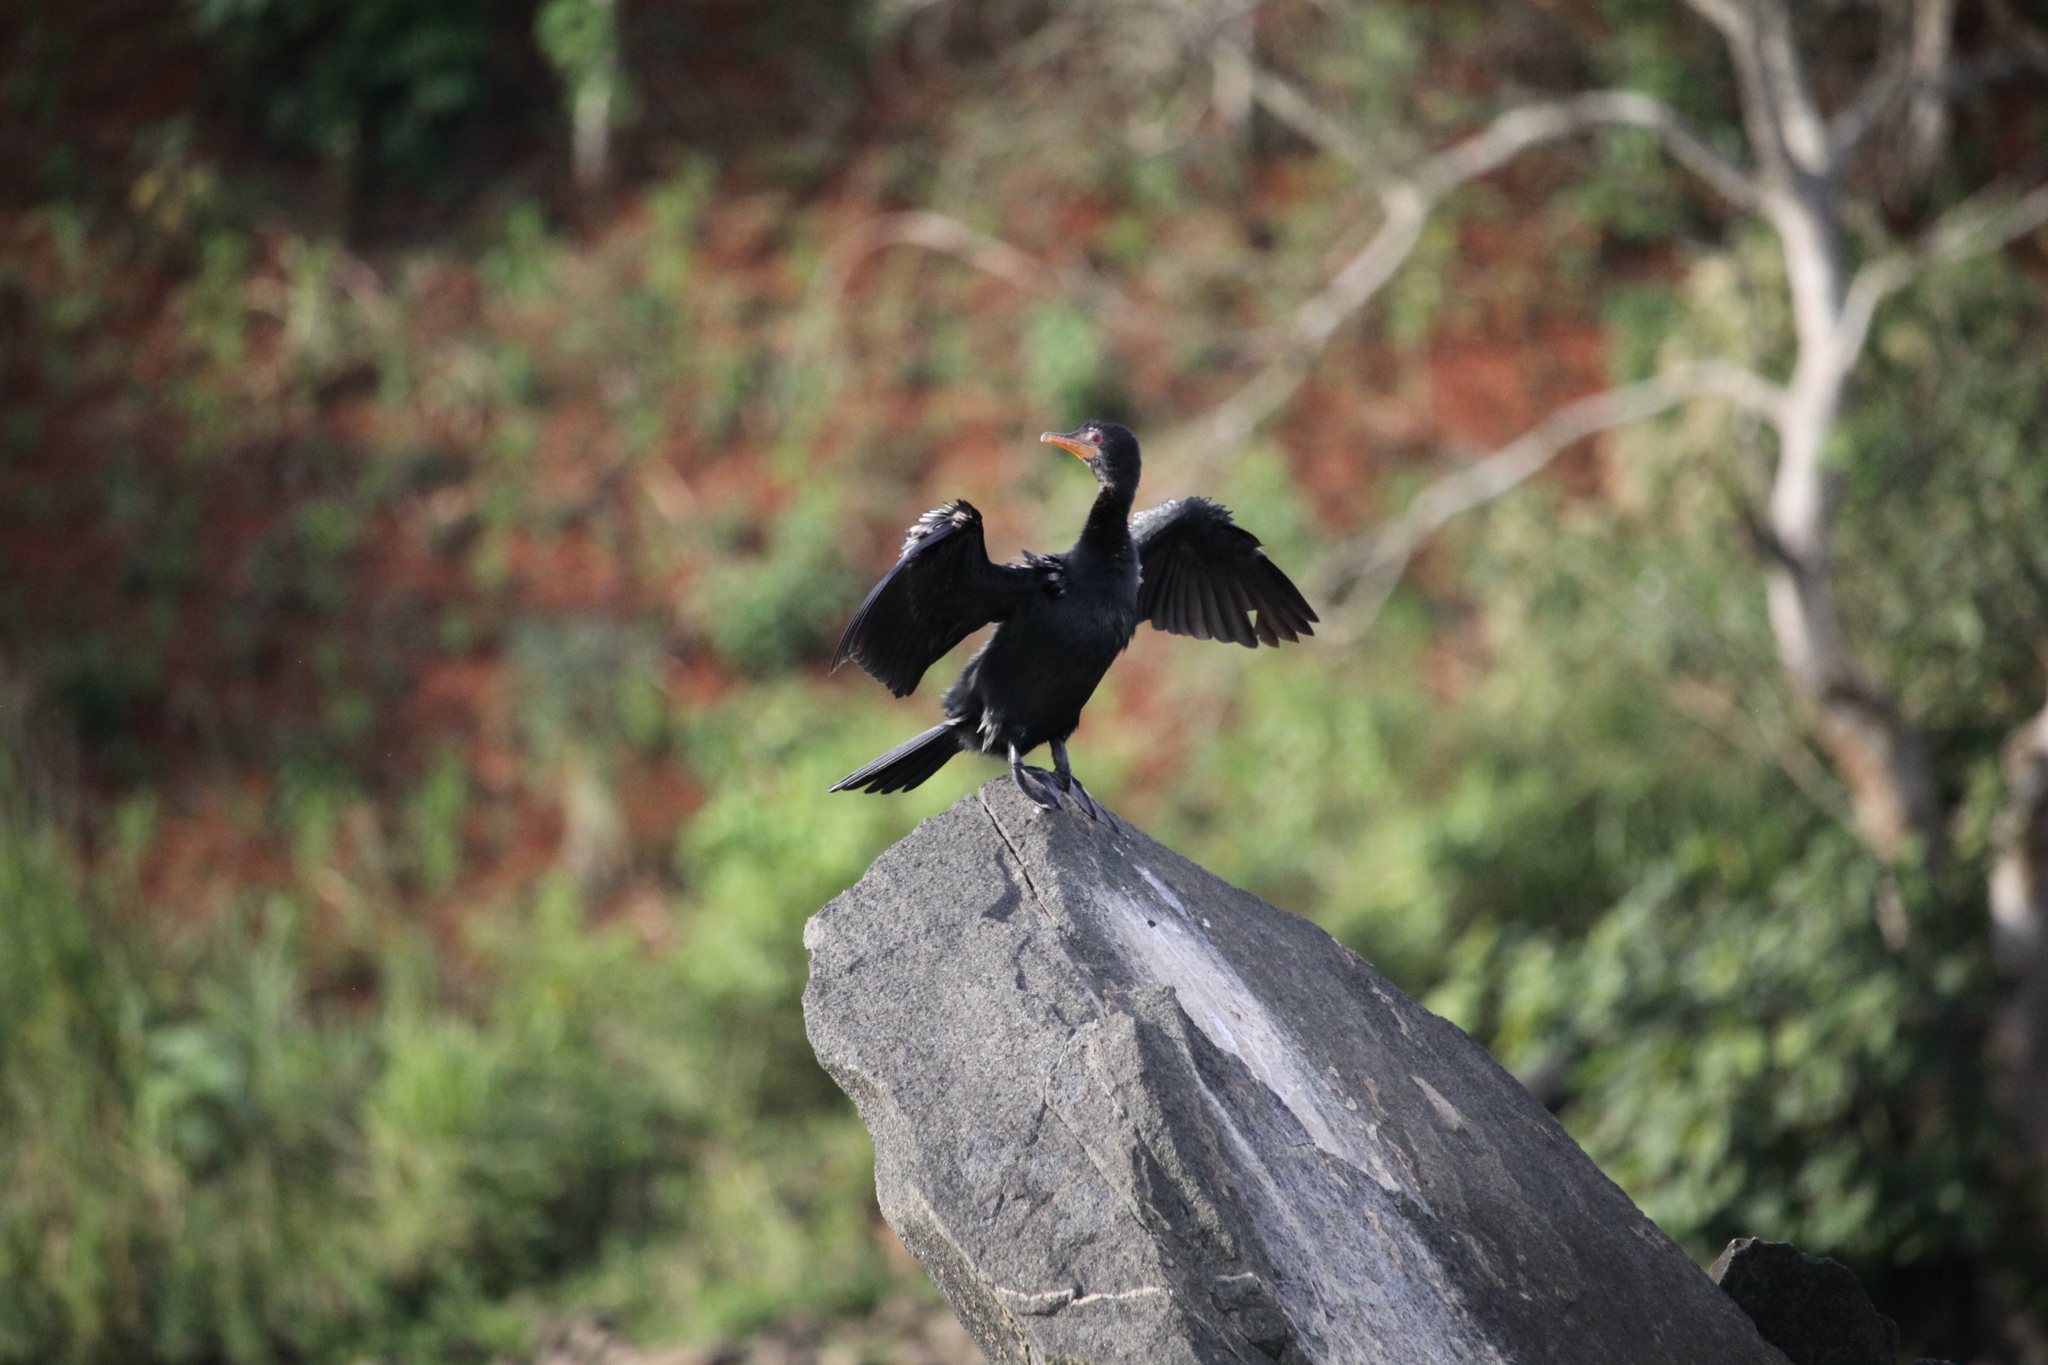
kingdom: Animalia
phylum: Chordata
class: Aves
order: Suliformes
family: Phalacrocoracidae
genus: Microcarbo
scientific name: Microcarbo africanus
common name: Long-tailed cormorant
